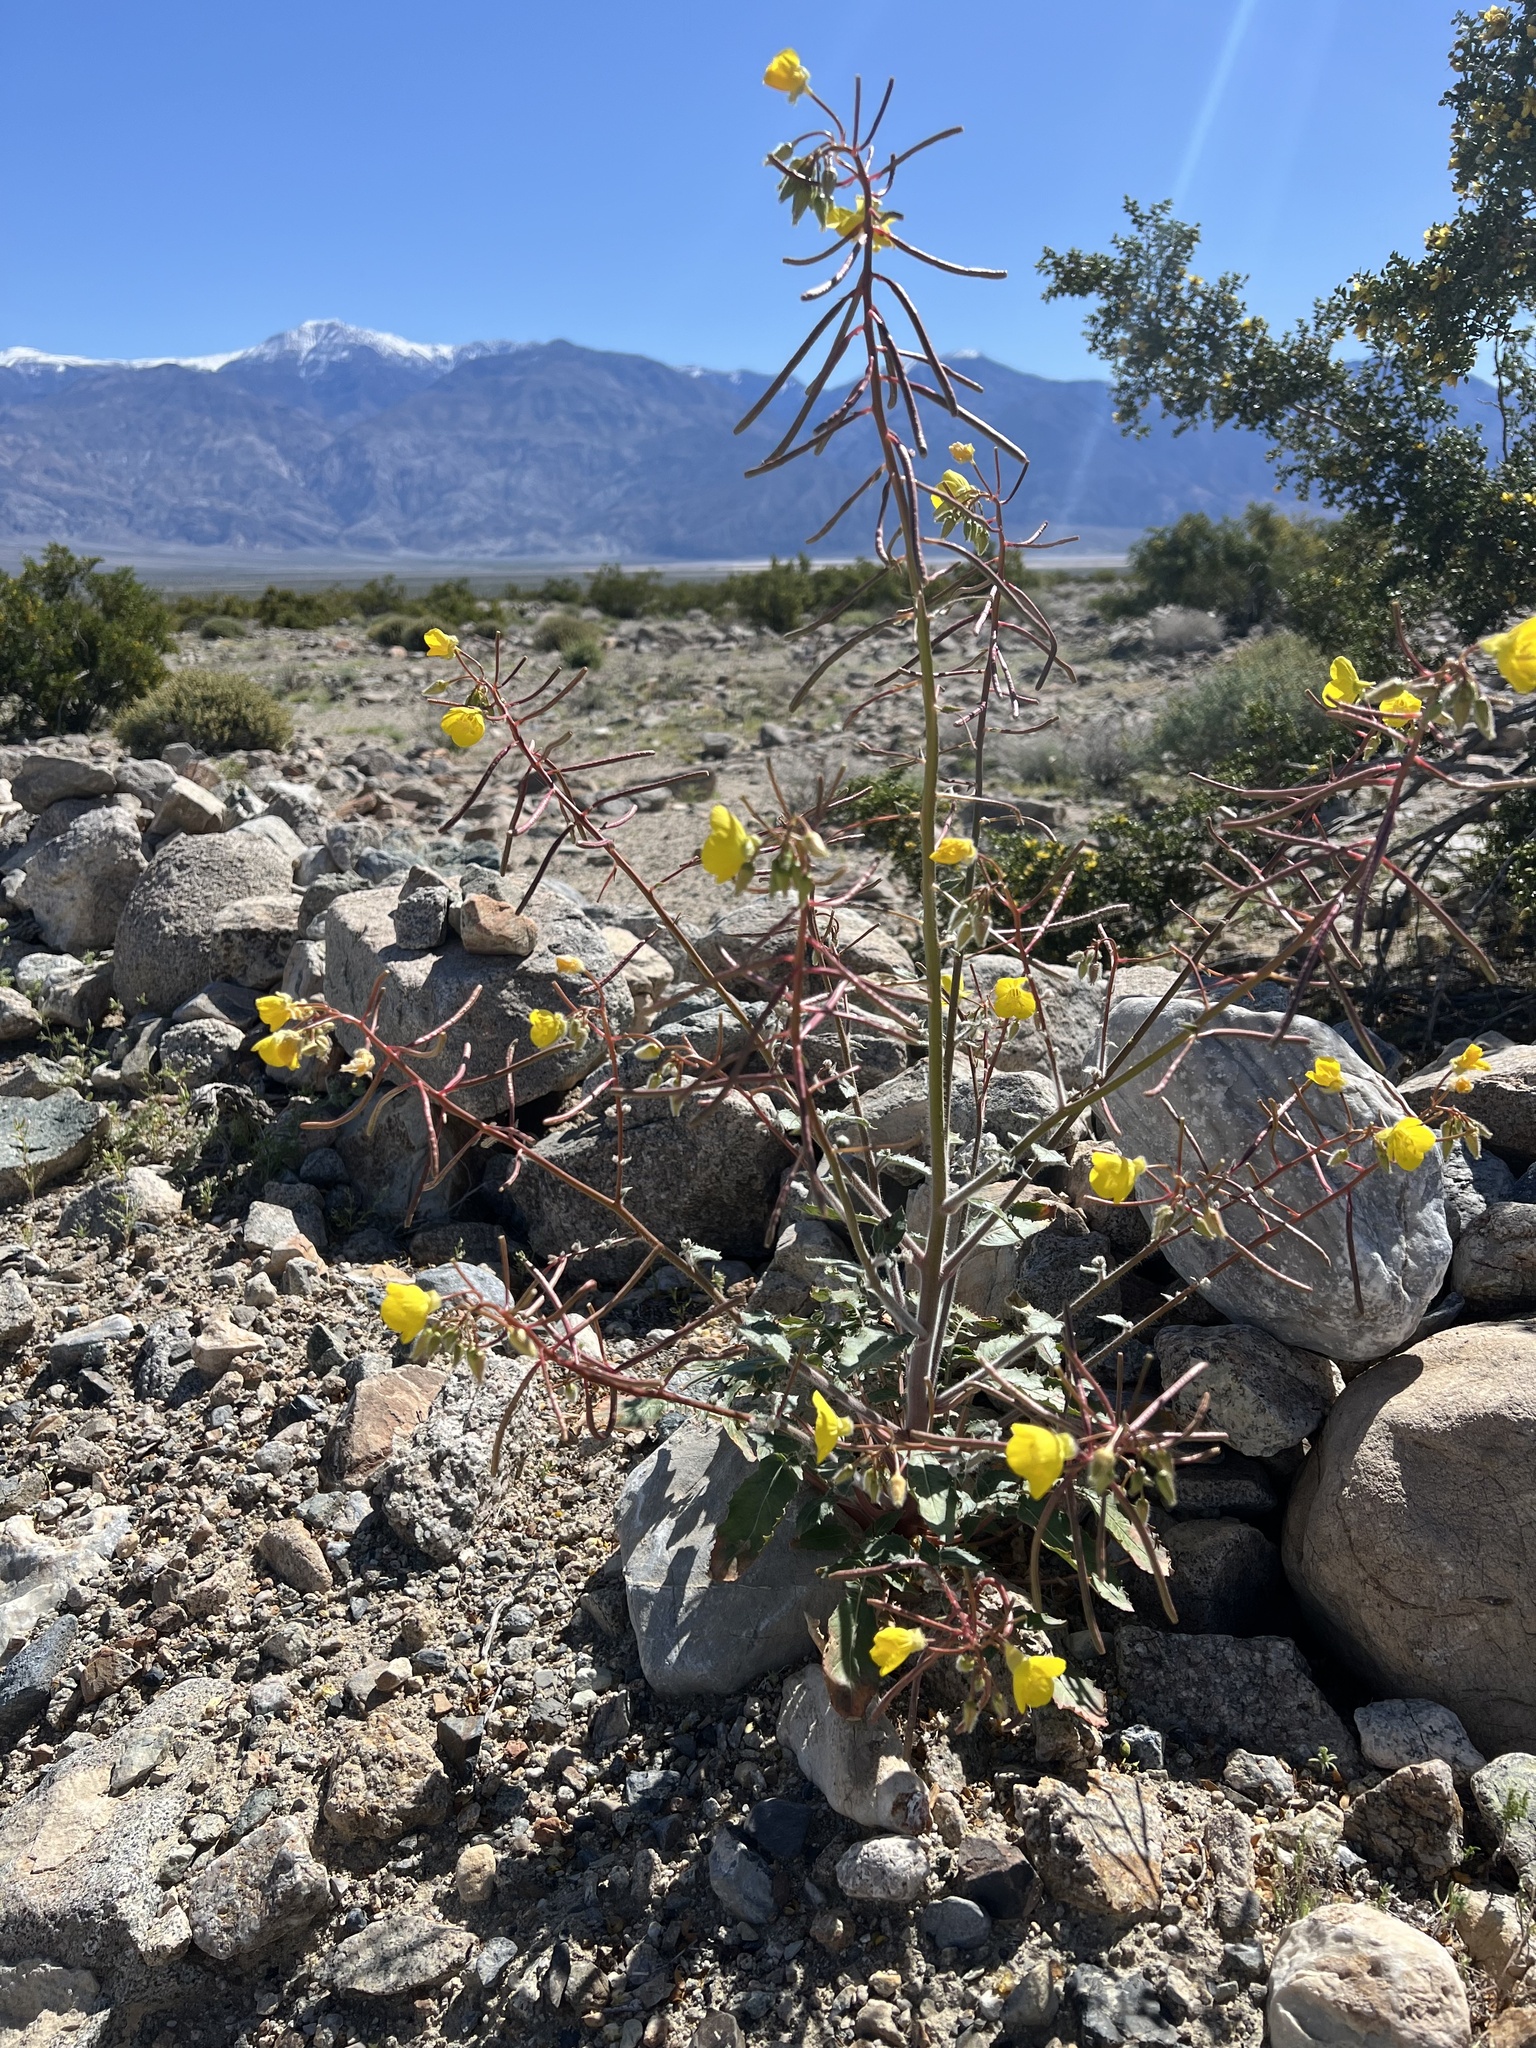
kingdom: Plantae
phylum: Tracheophyta
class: Magnoliopsida
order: Myrtales
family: Onagraceae
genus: Chylismia
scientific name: Chylismia brevipes
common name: Yellow cups
